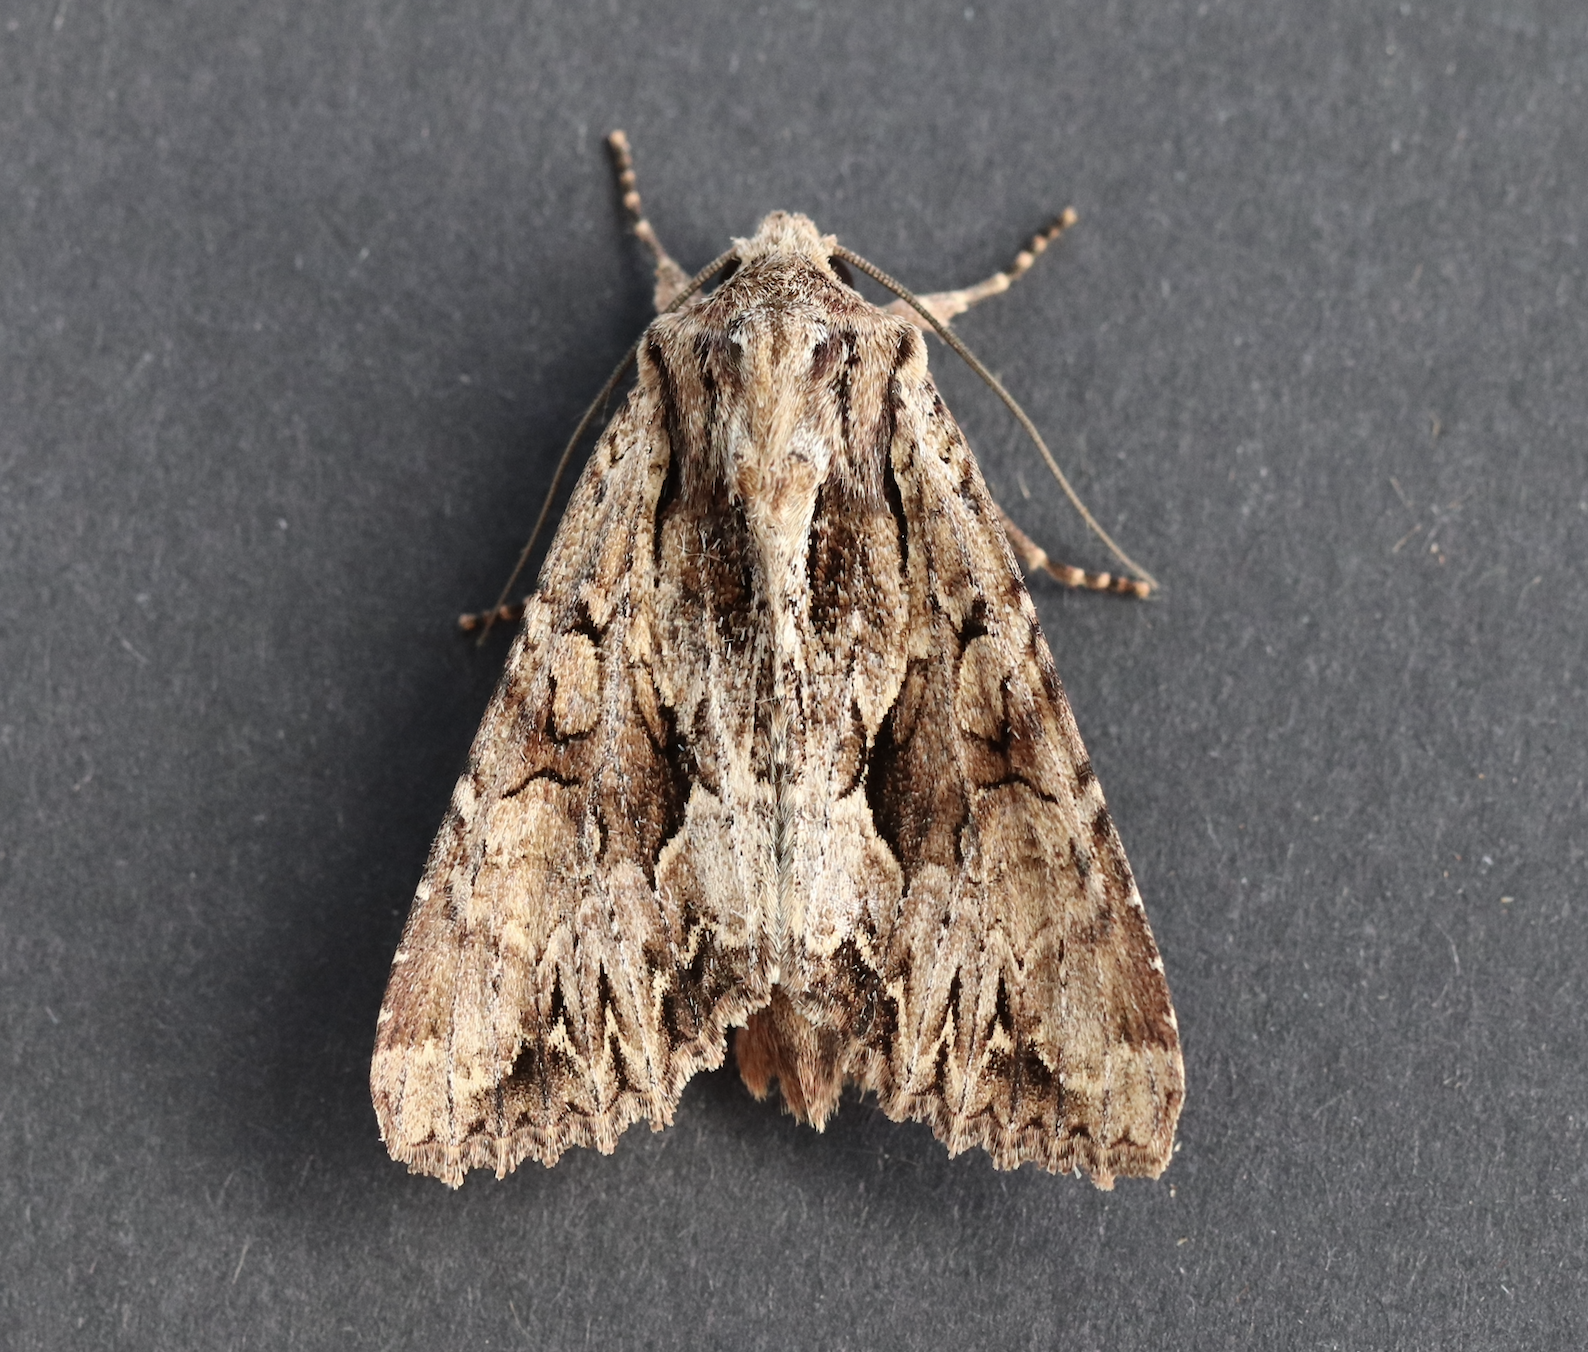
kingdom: Animalia
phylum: Arthropoda
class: Insecta
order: Lepidoptera
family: Noctuidae
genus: Apamea
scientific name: Apamea monoglypha
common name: Dark arches
